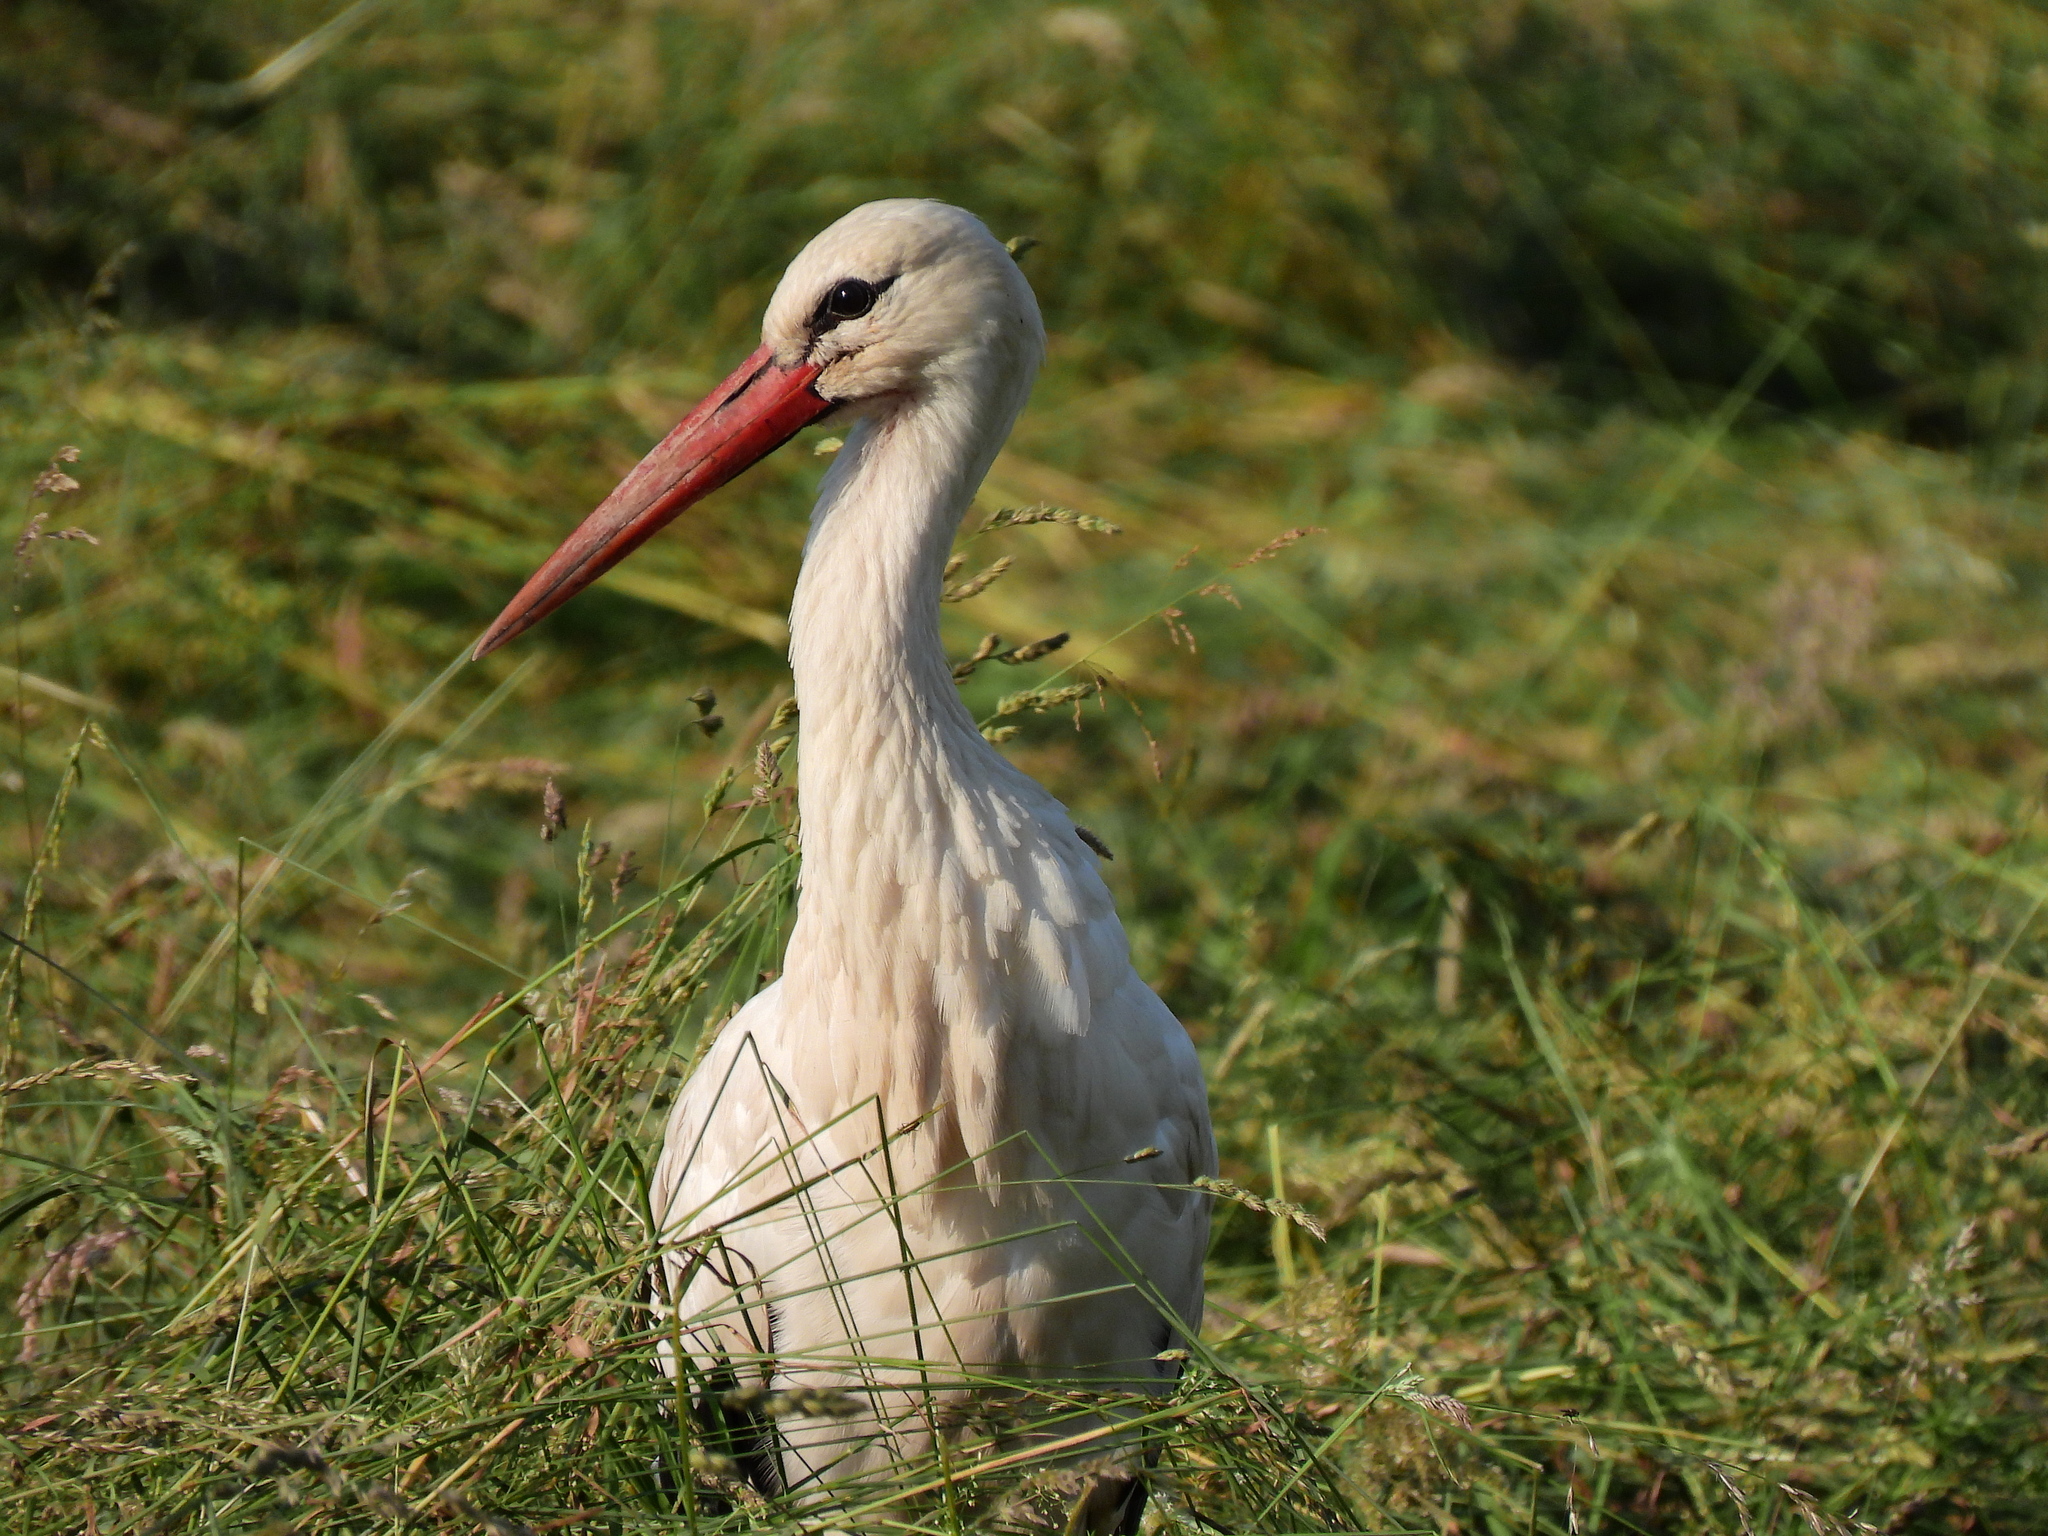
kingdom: Animalia
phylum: Chordata
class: Aves
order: Ciconiiformes
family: Ciconiidae
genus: Ciconia
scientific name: Ciconia ciconia
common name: White stork
